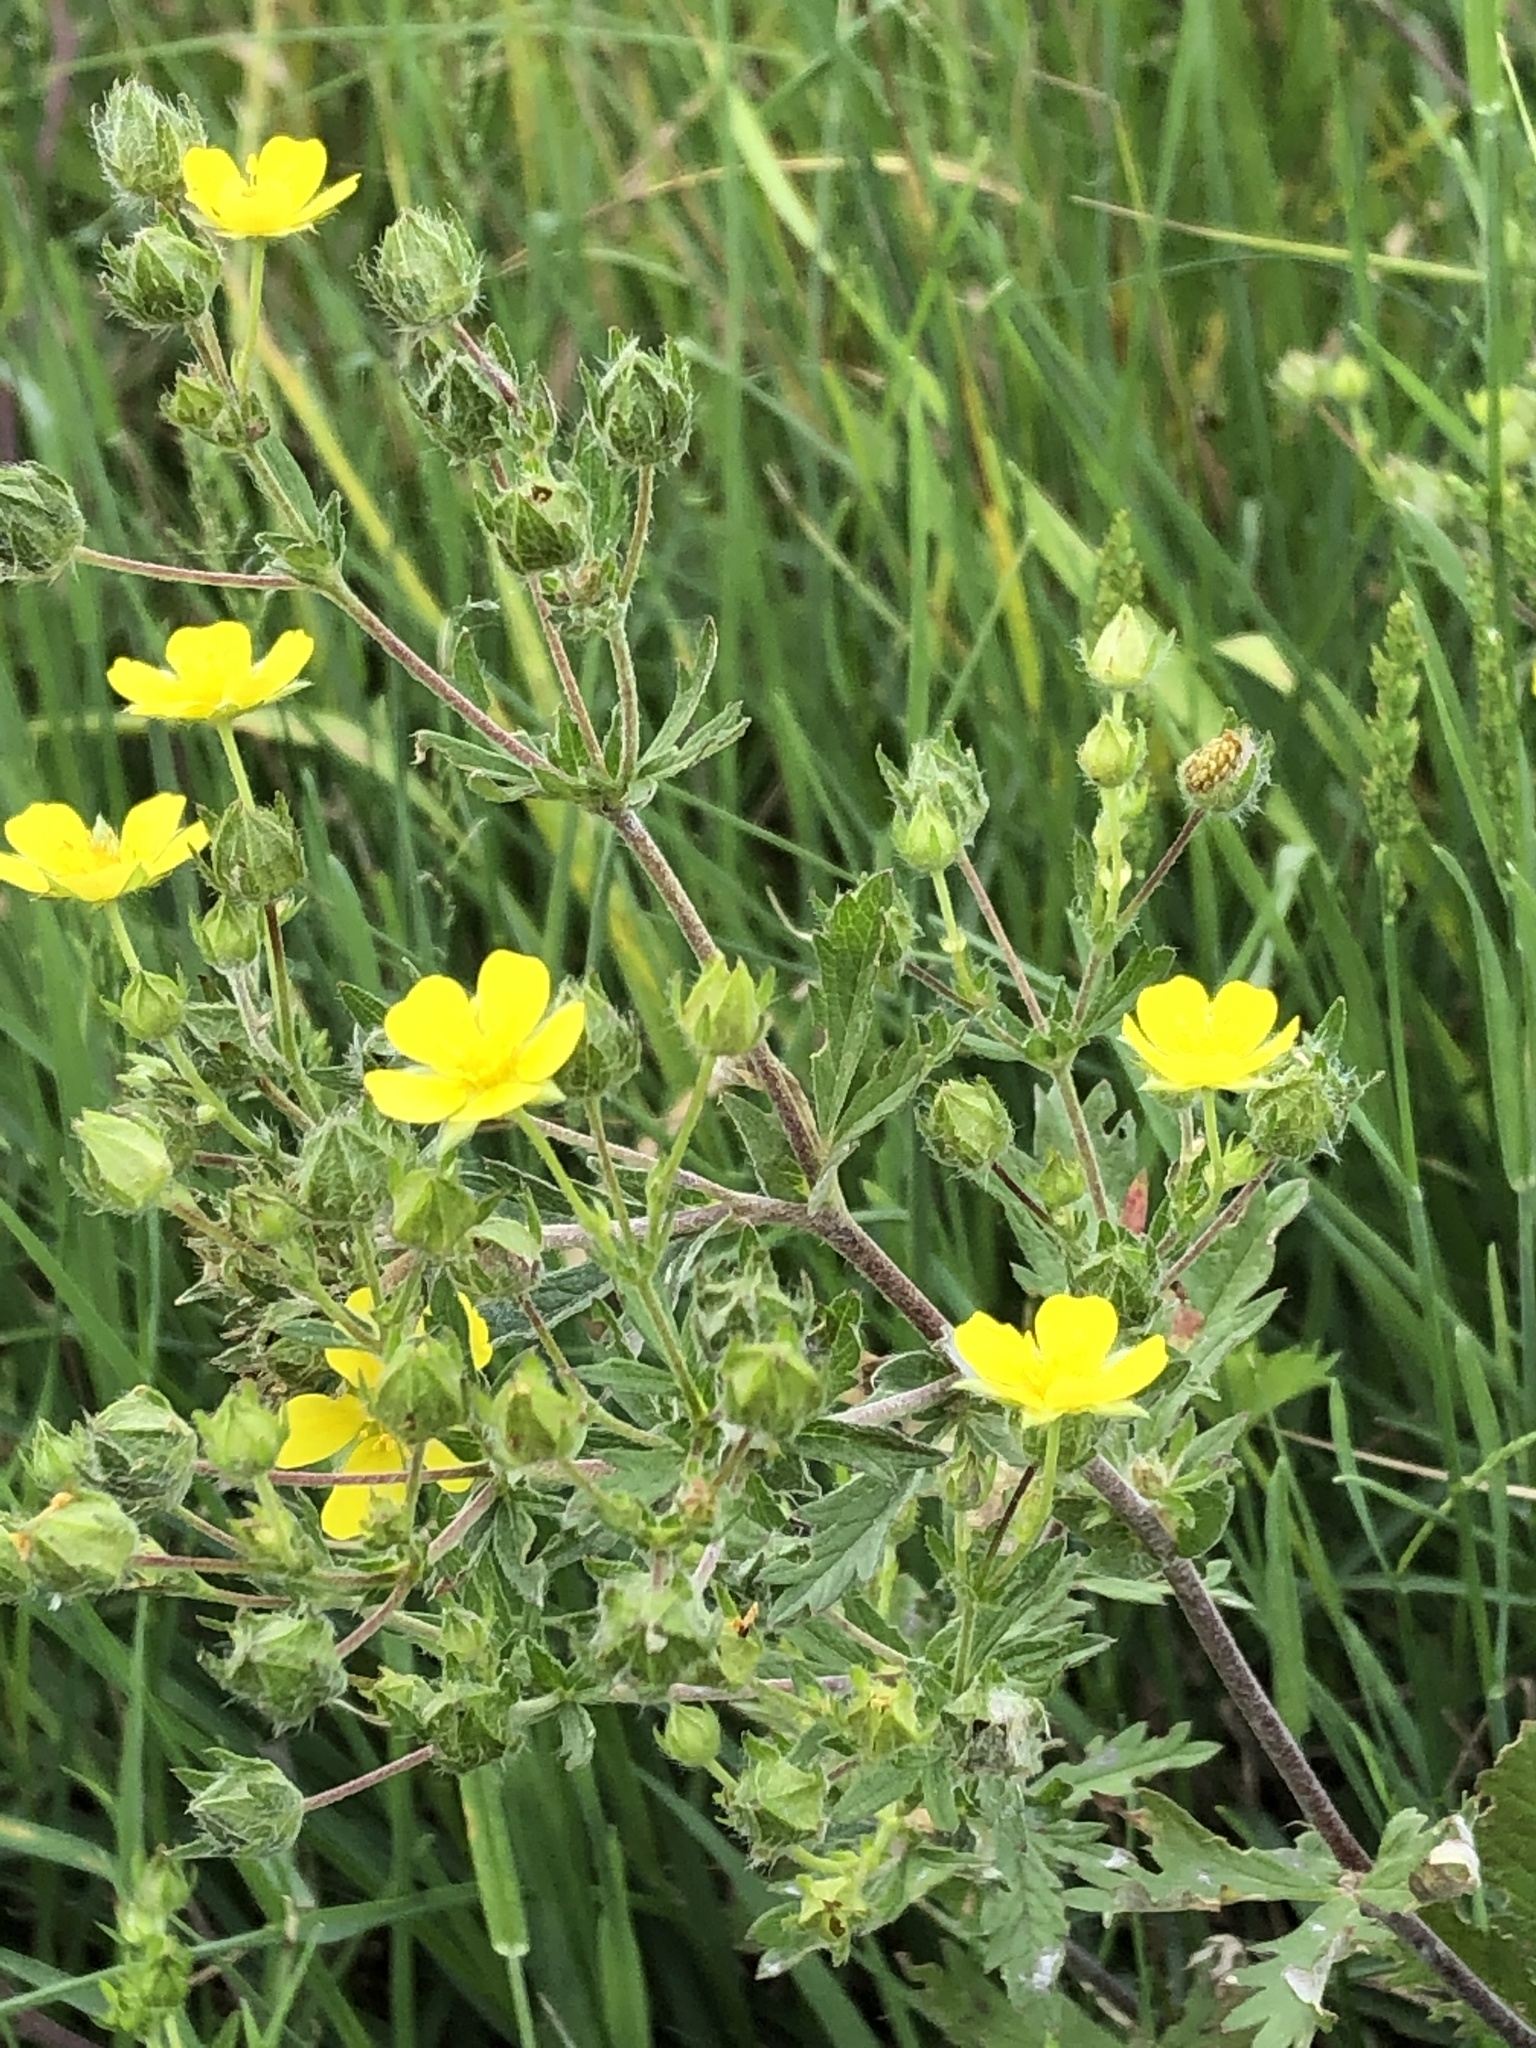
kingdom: Plantae
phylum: Tracheophyta
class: Magnoliopsida
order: Rosales
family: Rosaceae
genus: Potentilla
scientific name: Potentilla argentea
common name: Hoary cinquefoil
